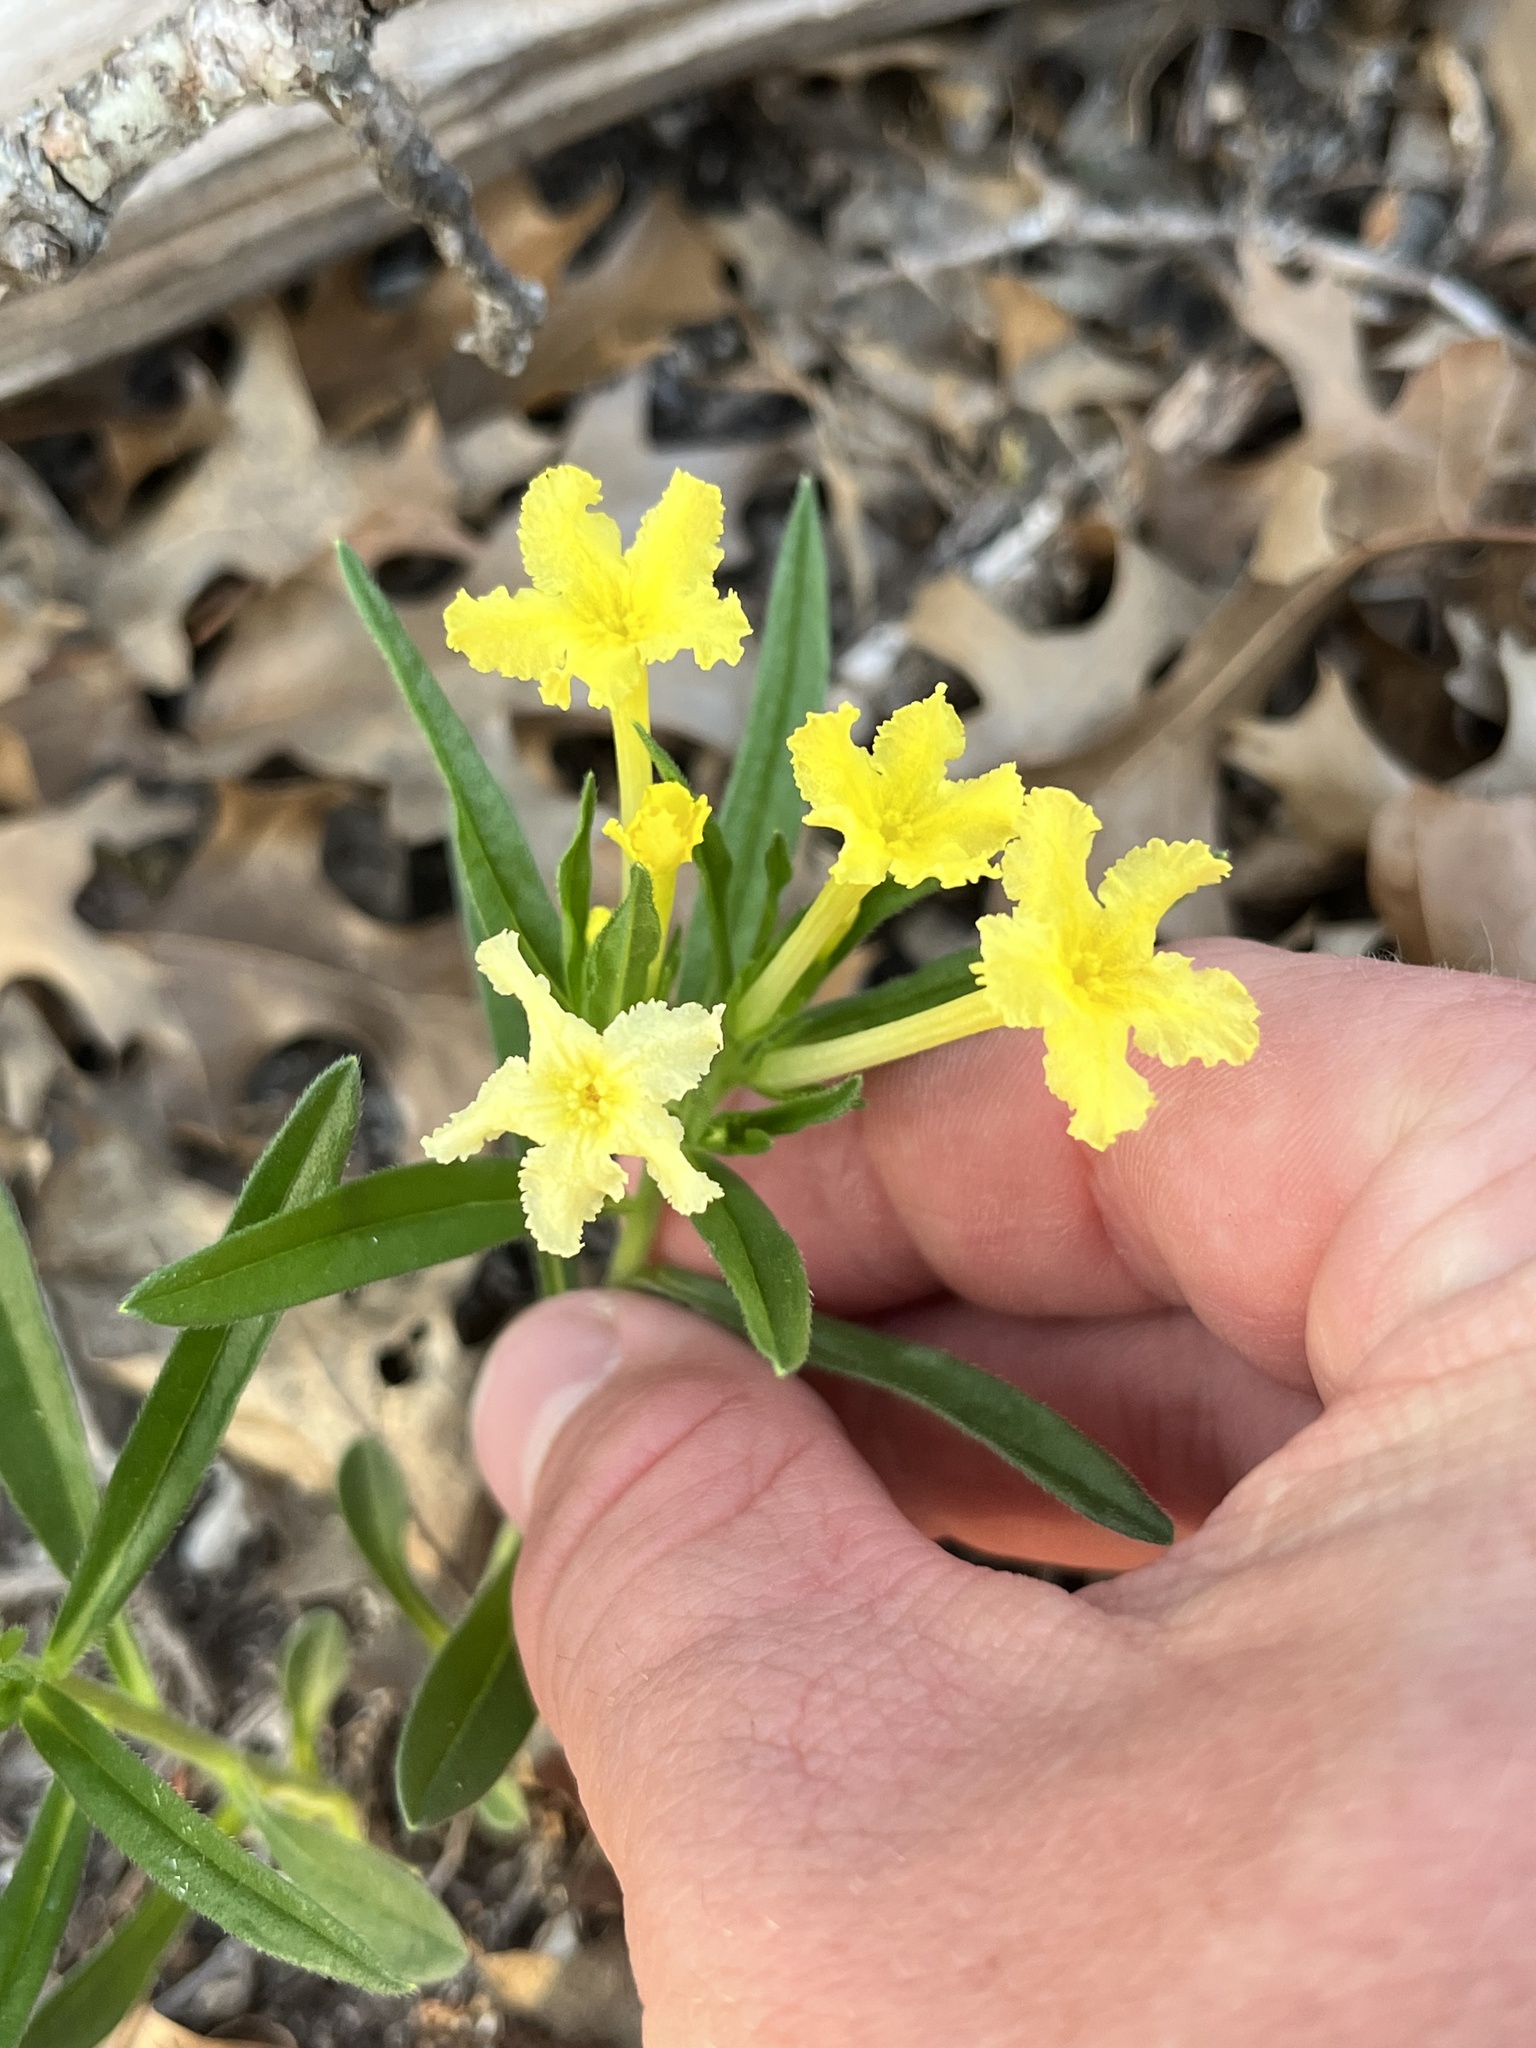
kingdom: Plantae
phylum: Tracheophyta
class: Magnoliopsida
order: Boraginales
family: Boraginaceae
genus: Lithospermum
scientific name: Lithospermum incisum
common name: Fringed gromwell
